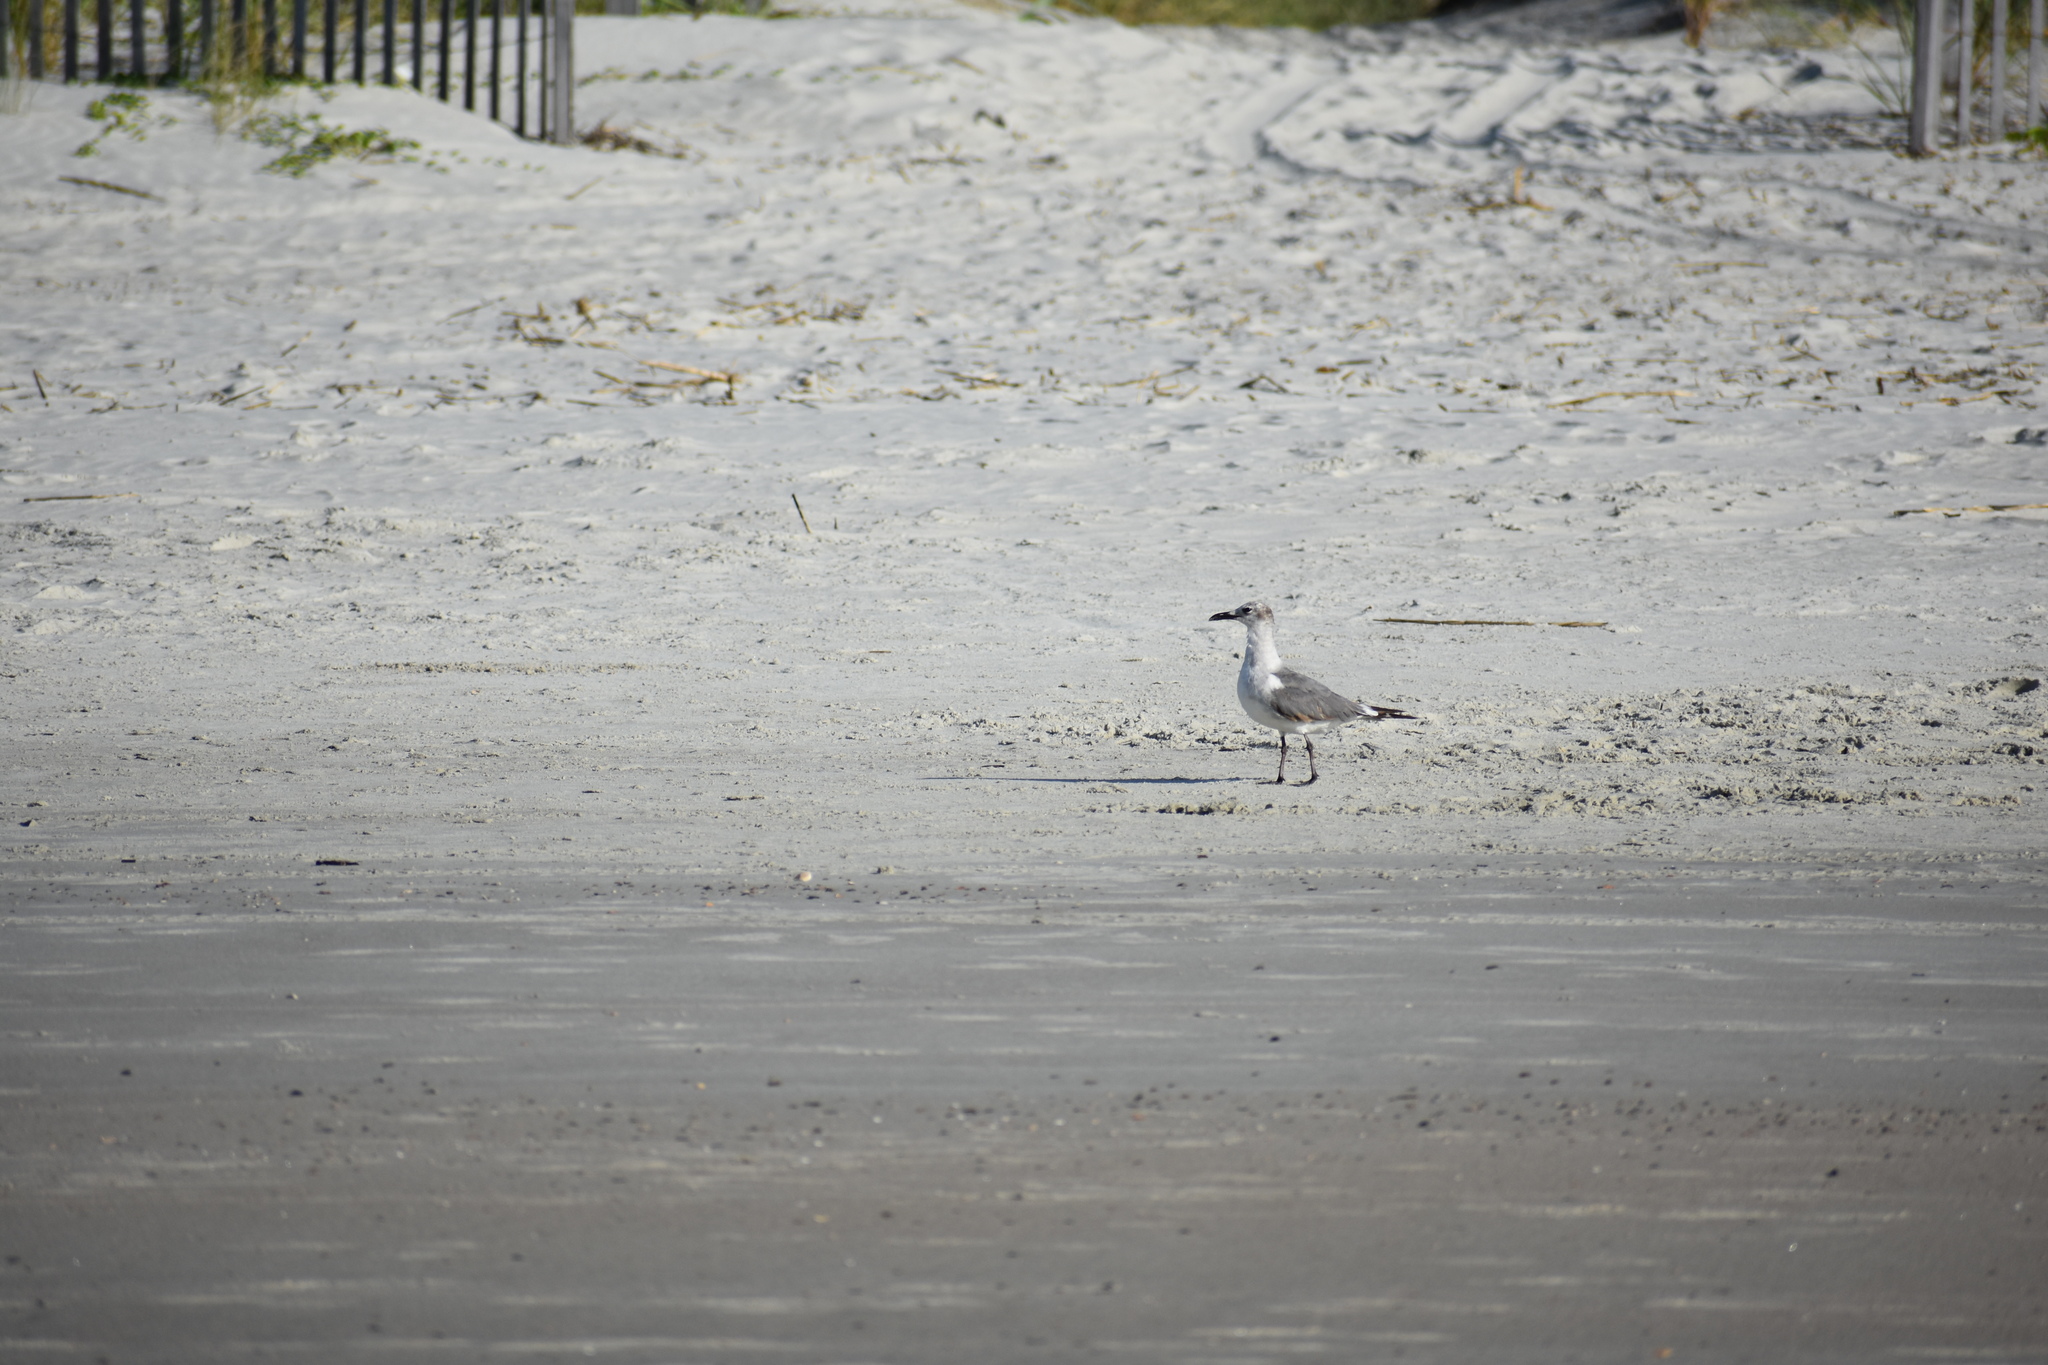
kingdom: Animalia
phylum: Chordata
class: Aves
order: Charadriiformes
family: Laridae
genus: Leucophaeus
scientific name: Leucophaeus atricilla
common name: Laughing gull
